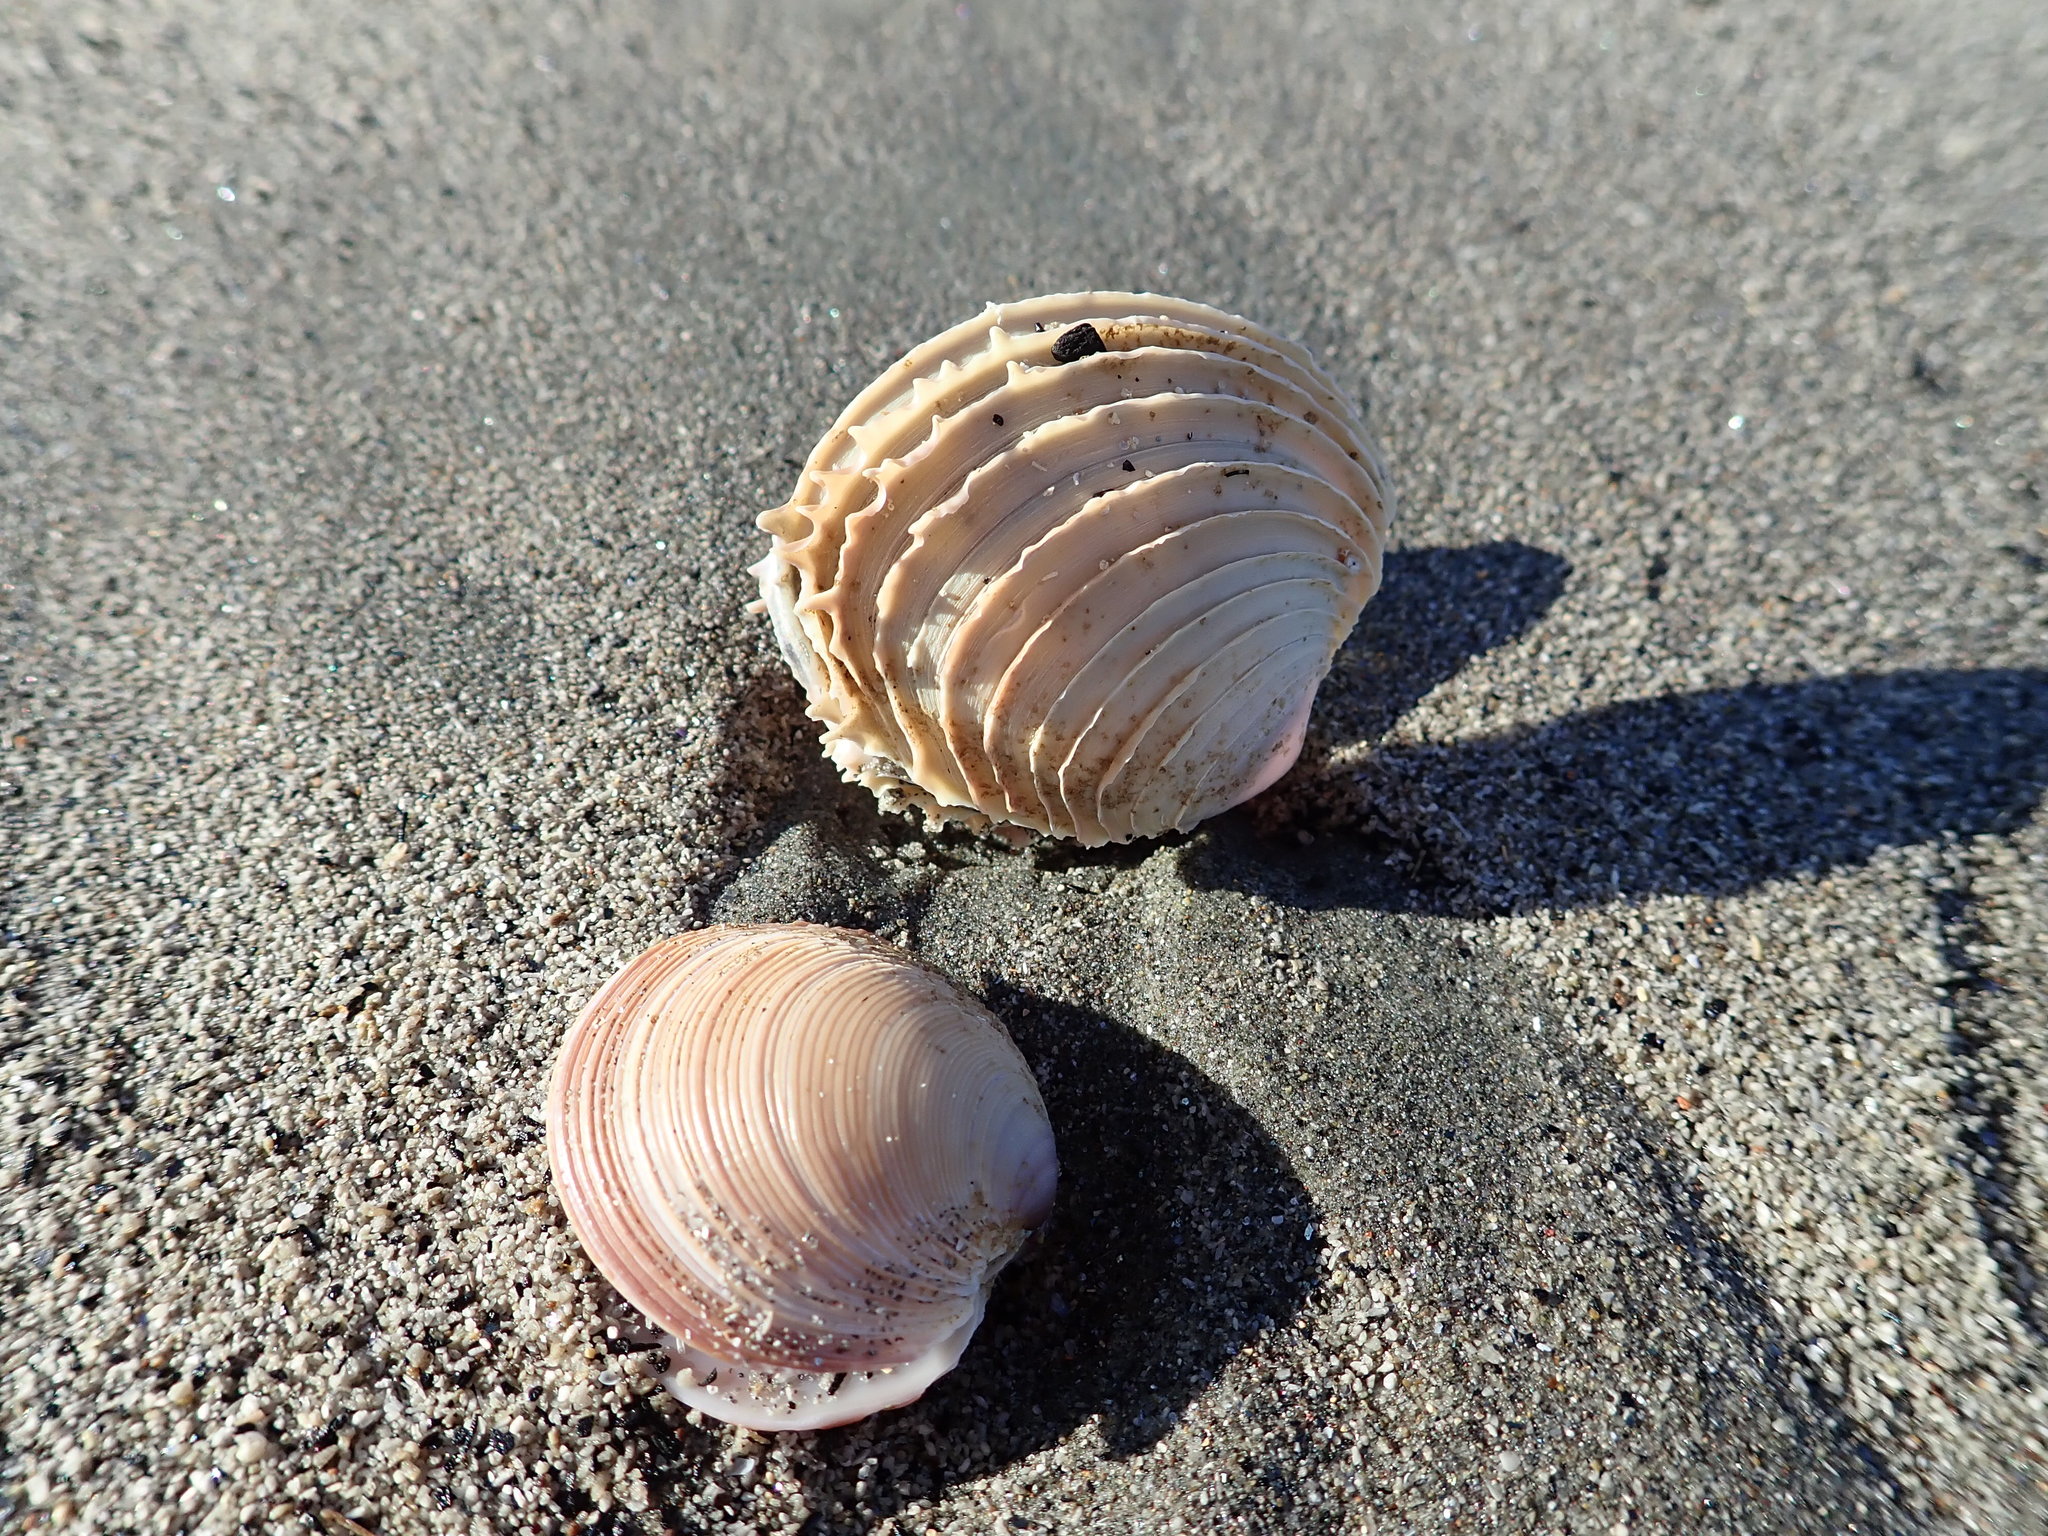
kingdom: Animalia
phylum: Mollusca
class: Bivalvia
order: Venerida
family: Veneridae
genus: Bassina
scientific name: Bassina yatei
